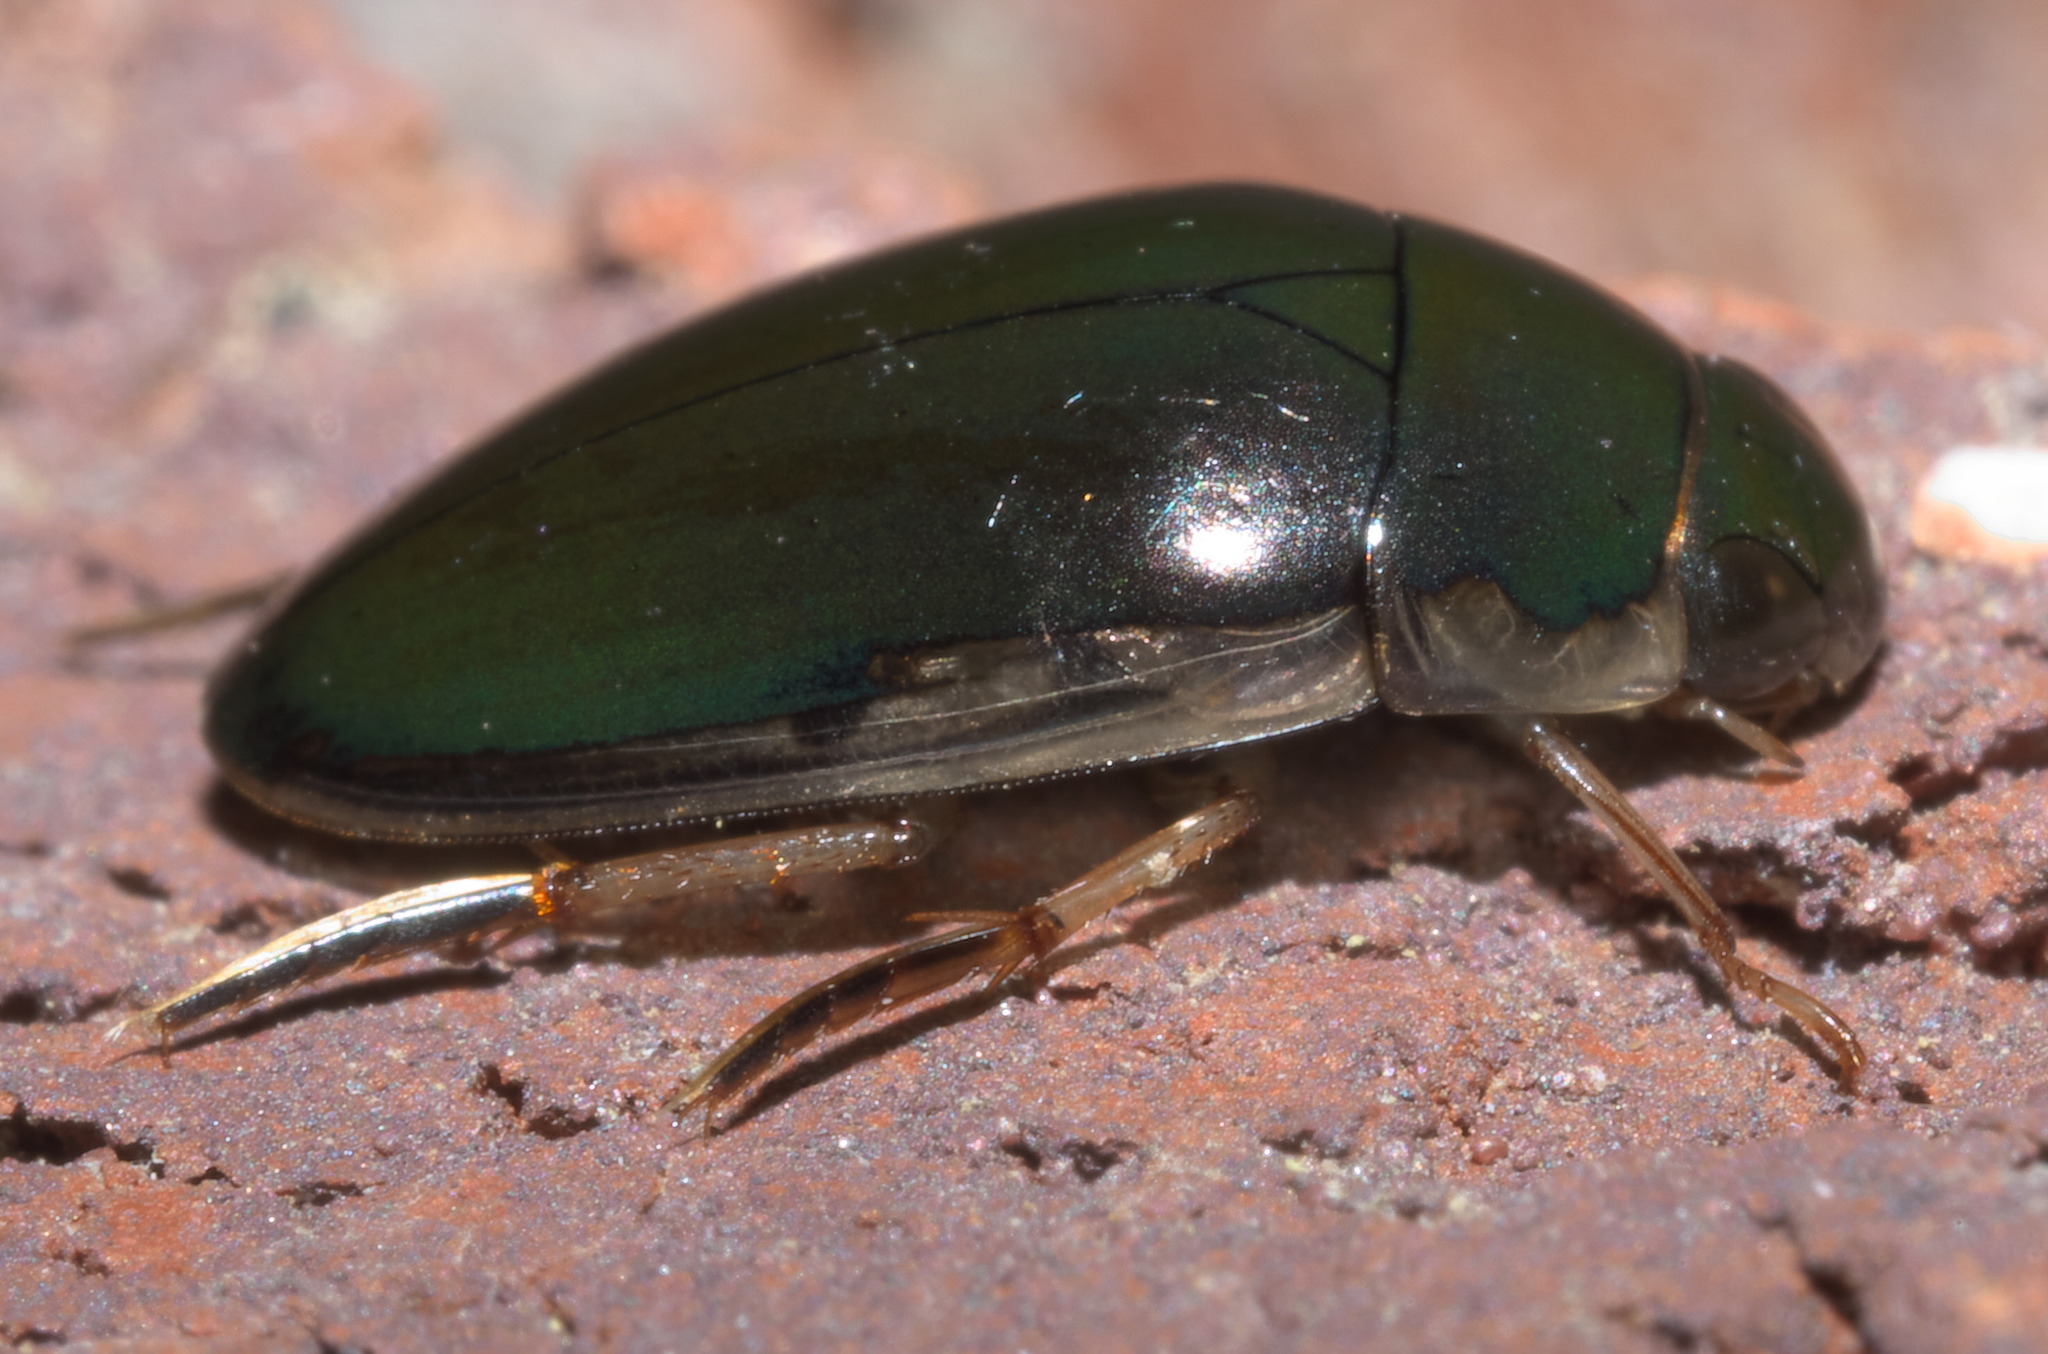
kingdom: Animalia
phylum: Arthropoda
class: Insecta
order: Coleoptera
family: Hydrophilidae
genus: Tropisternus
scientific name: Tropisternus lateralis
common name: Lateral-banded water scavenger beetle
